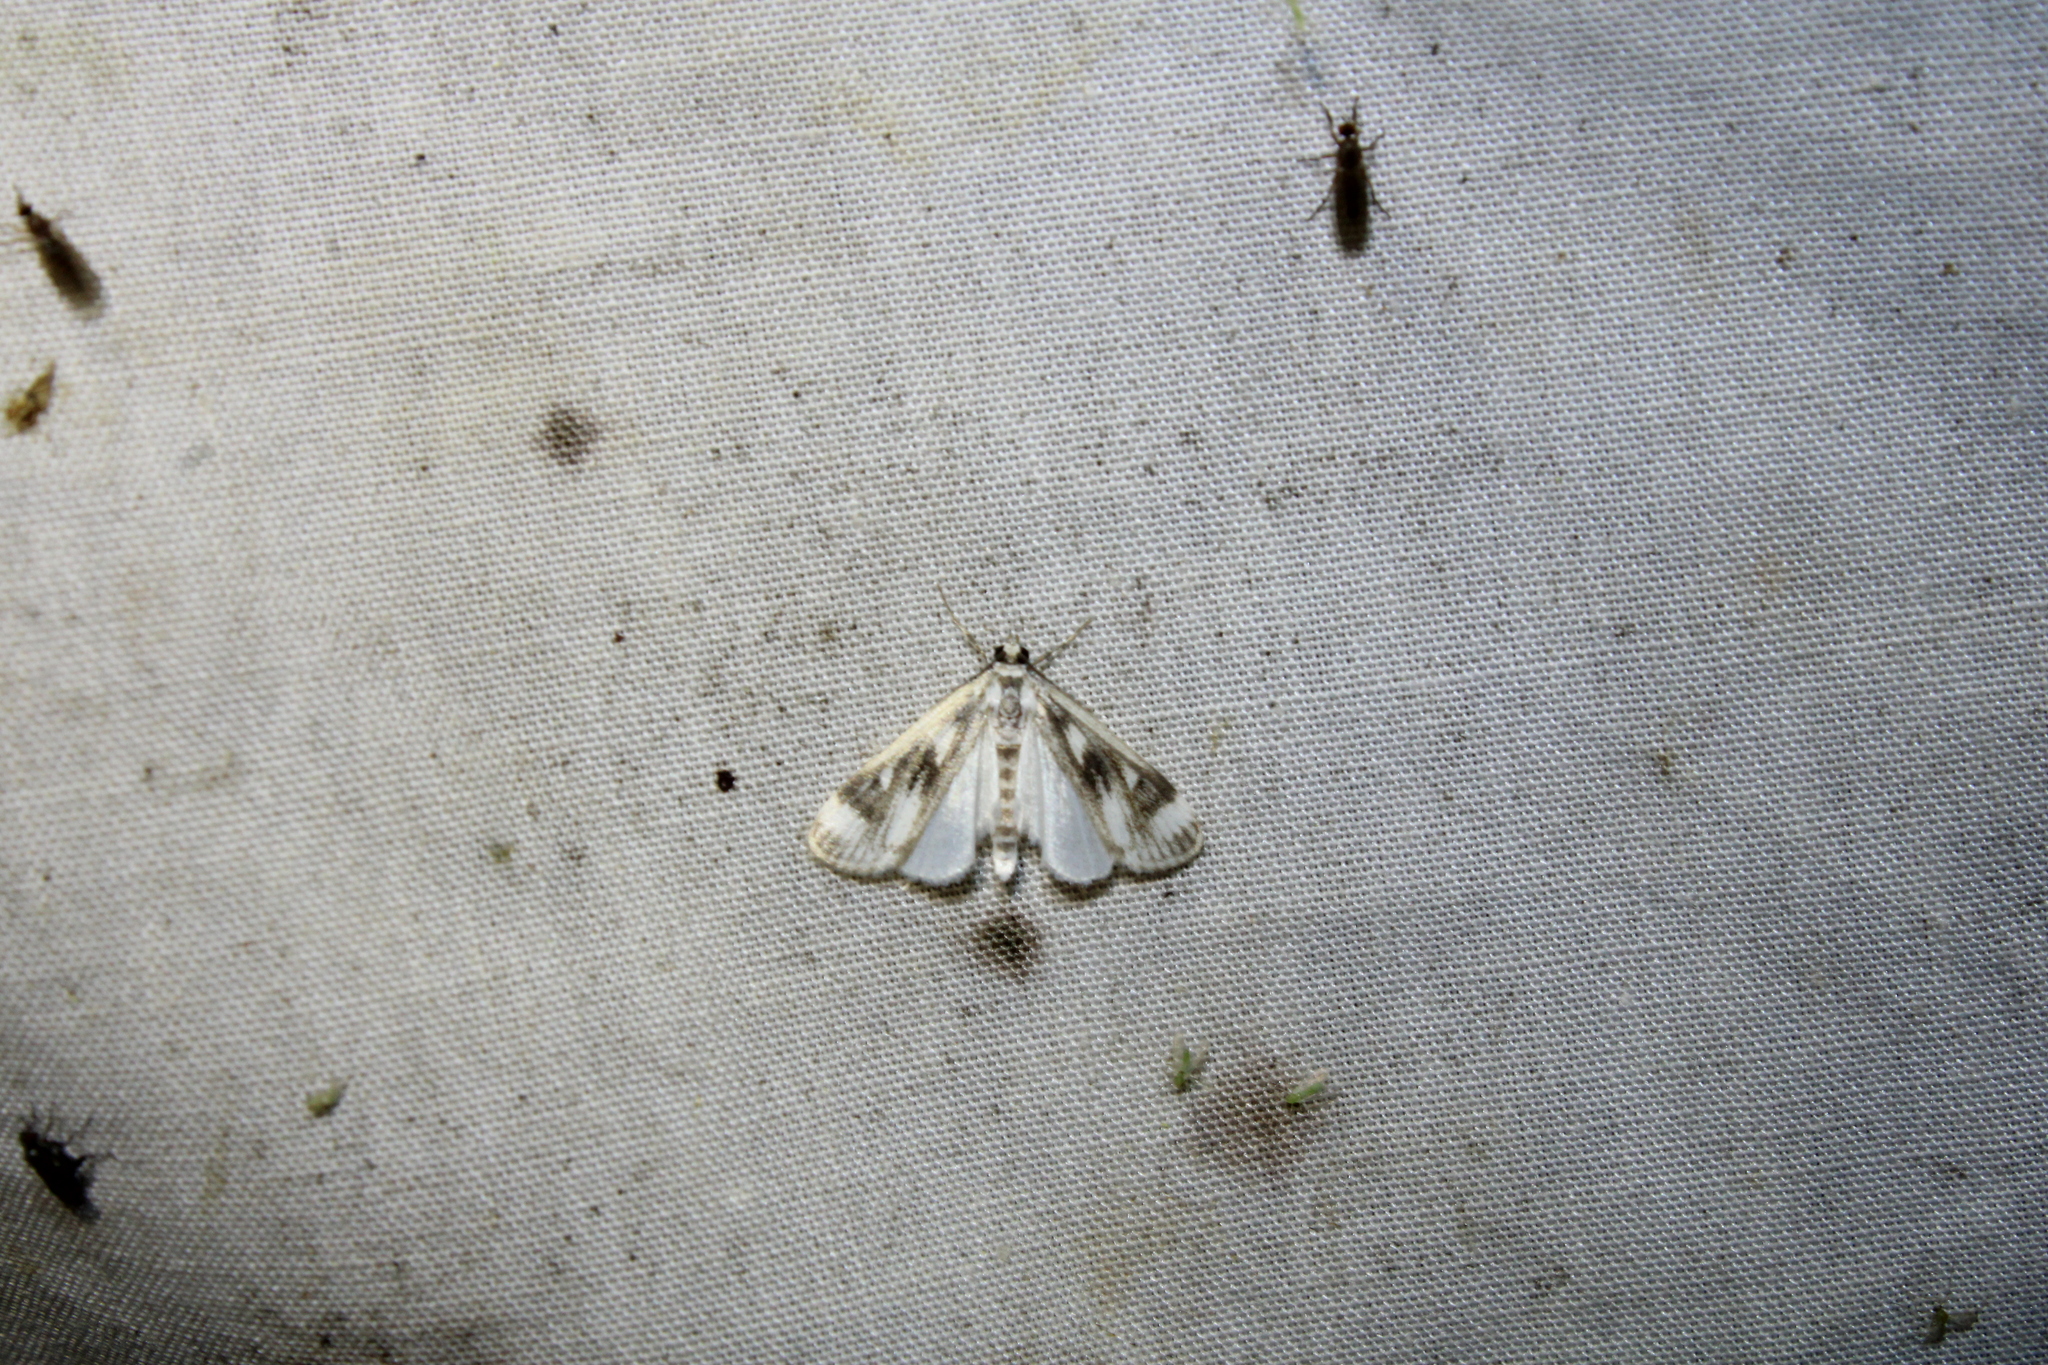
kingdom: Animalia
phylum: Arthropoda
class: Insecta
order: Lepidoptera
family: Crambidae
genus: Parapoynx
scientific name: Parapoynx maculalis
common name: Polymorphic pondweed moth
